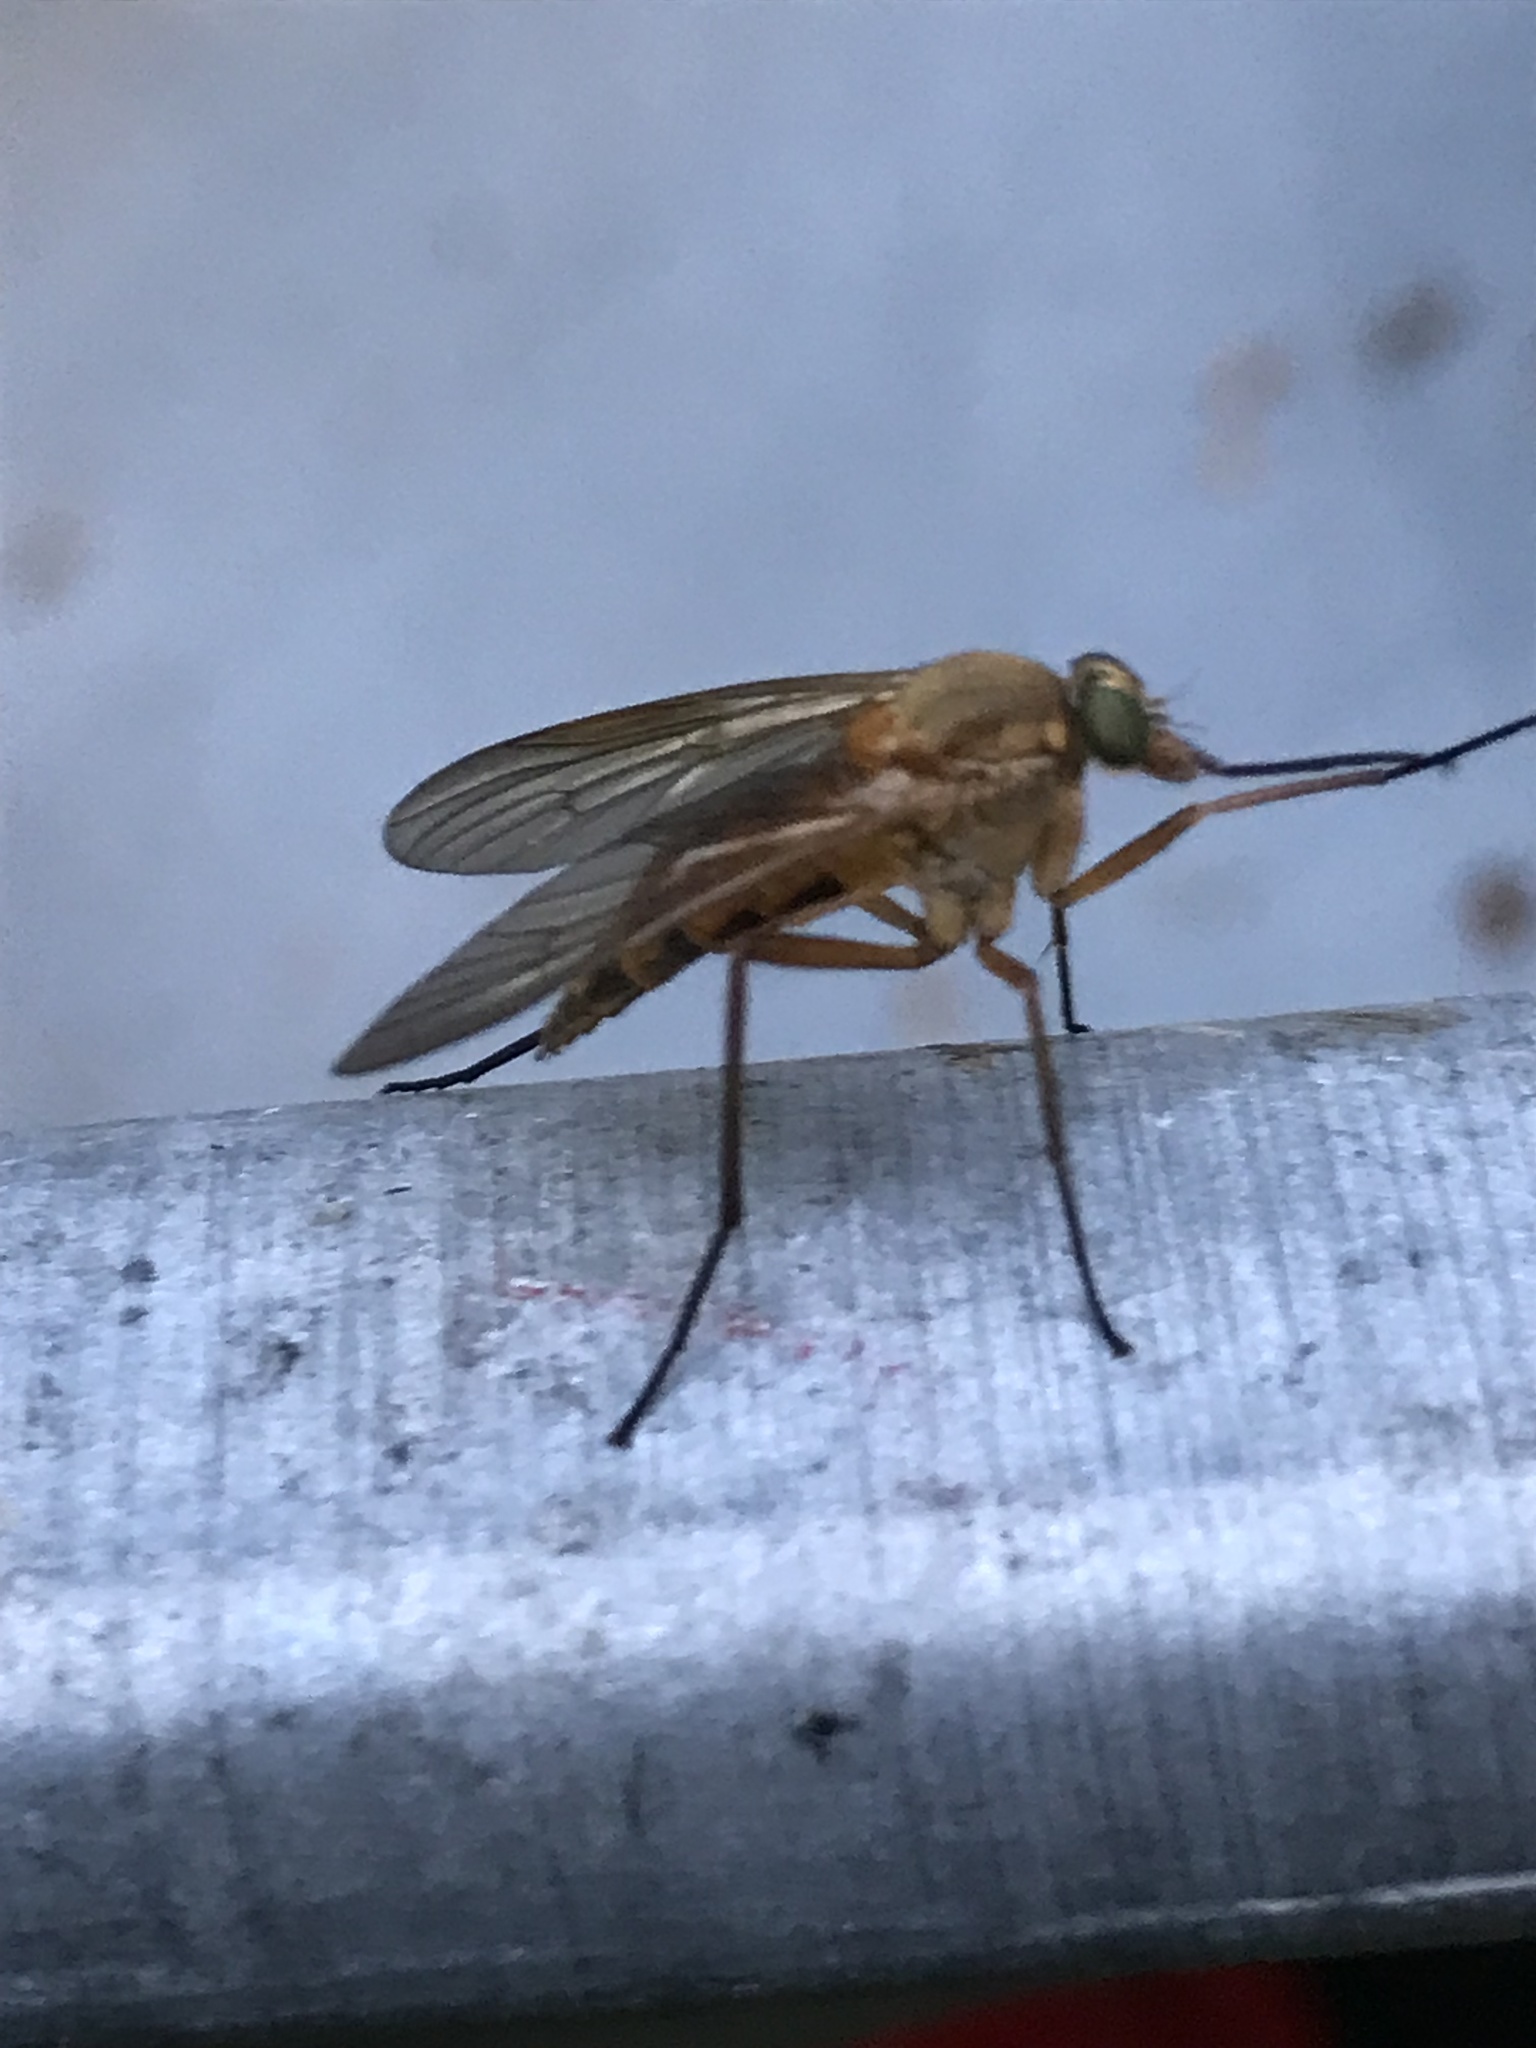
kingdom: Animalia
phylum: Arthropoda
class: Insecta
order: Diptera
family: Rhagionidae
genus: Rhagio
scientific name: Rhagio tringaria
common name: Marsh snipefly
